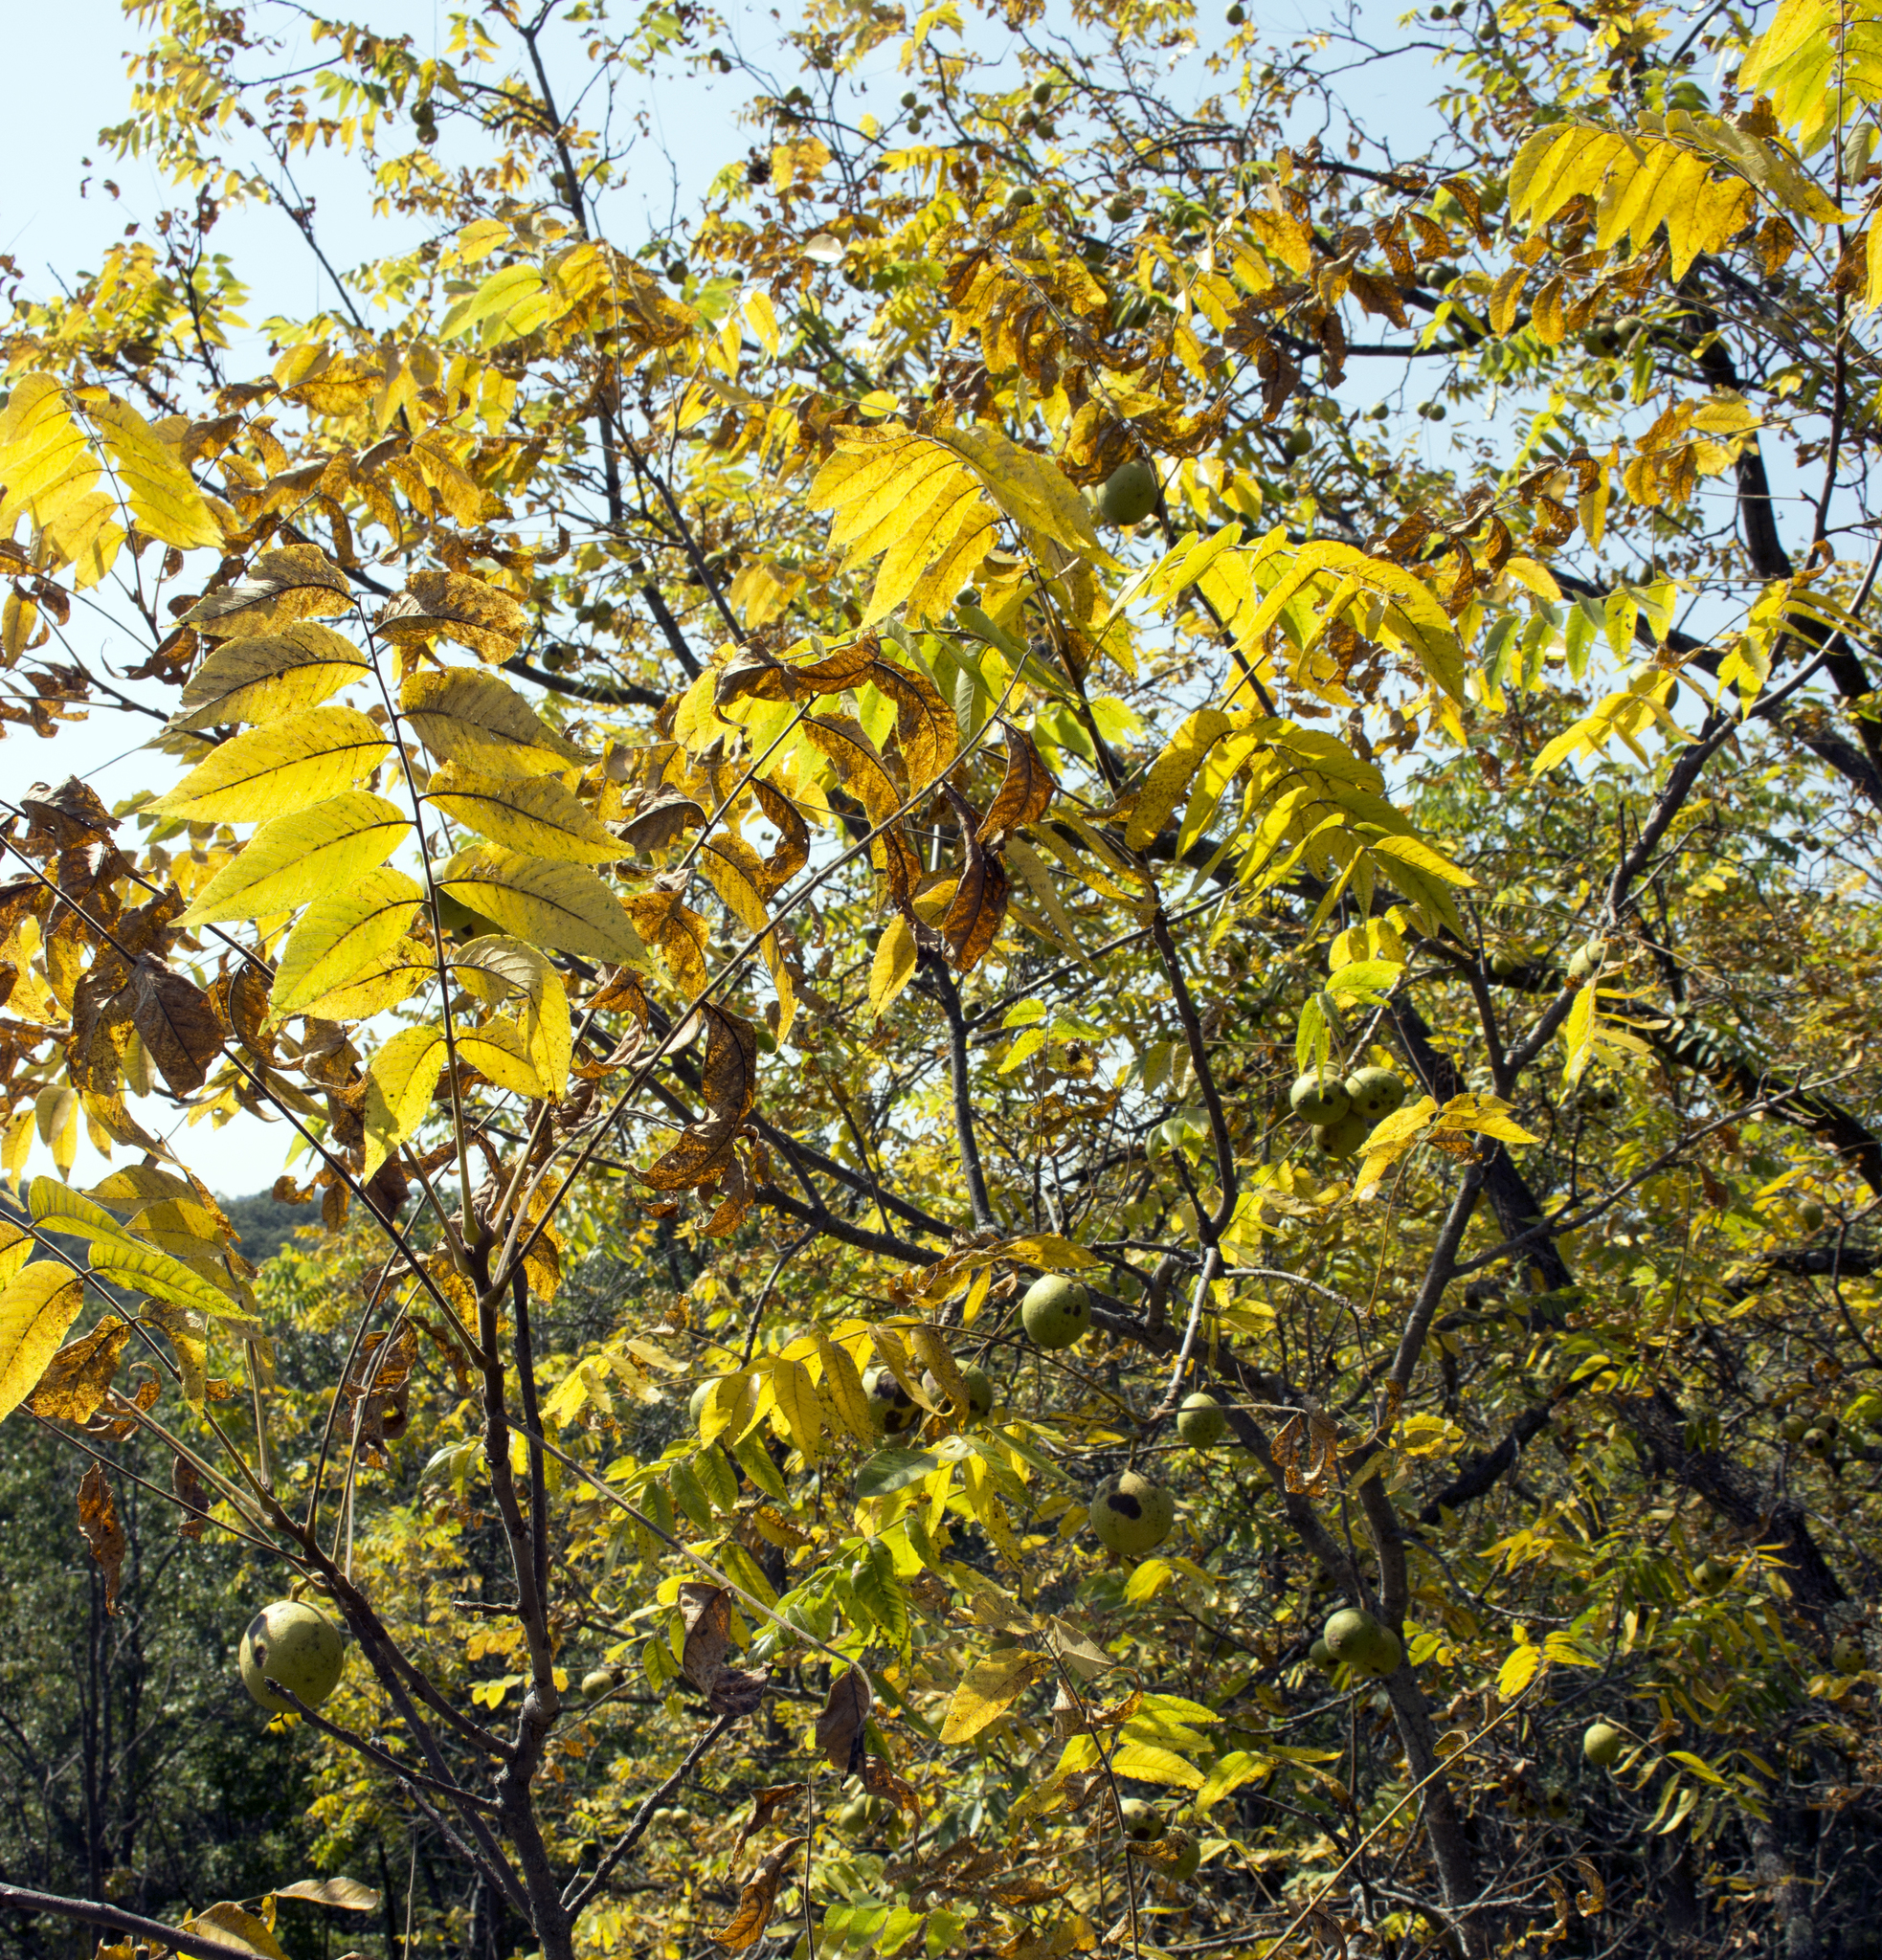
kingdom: Plantae
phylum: Tracheophyta
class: Magnoliopsida
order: Fagales
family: Juglandaceae
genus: Juglans
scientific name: Juglans nigra
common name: Black walnut
